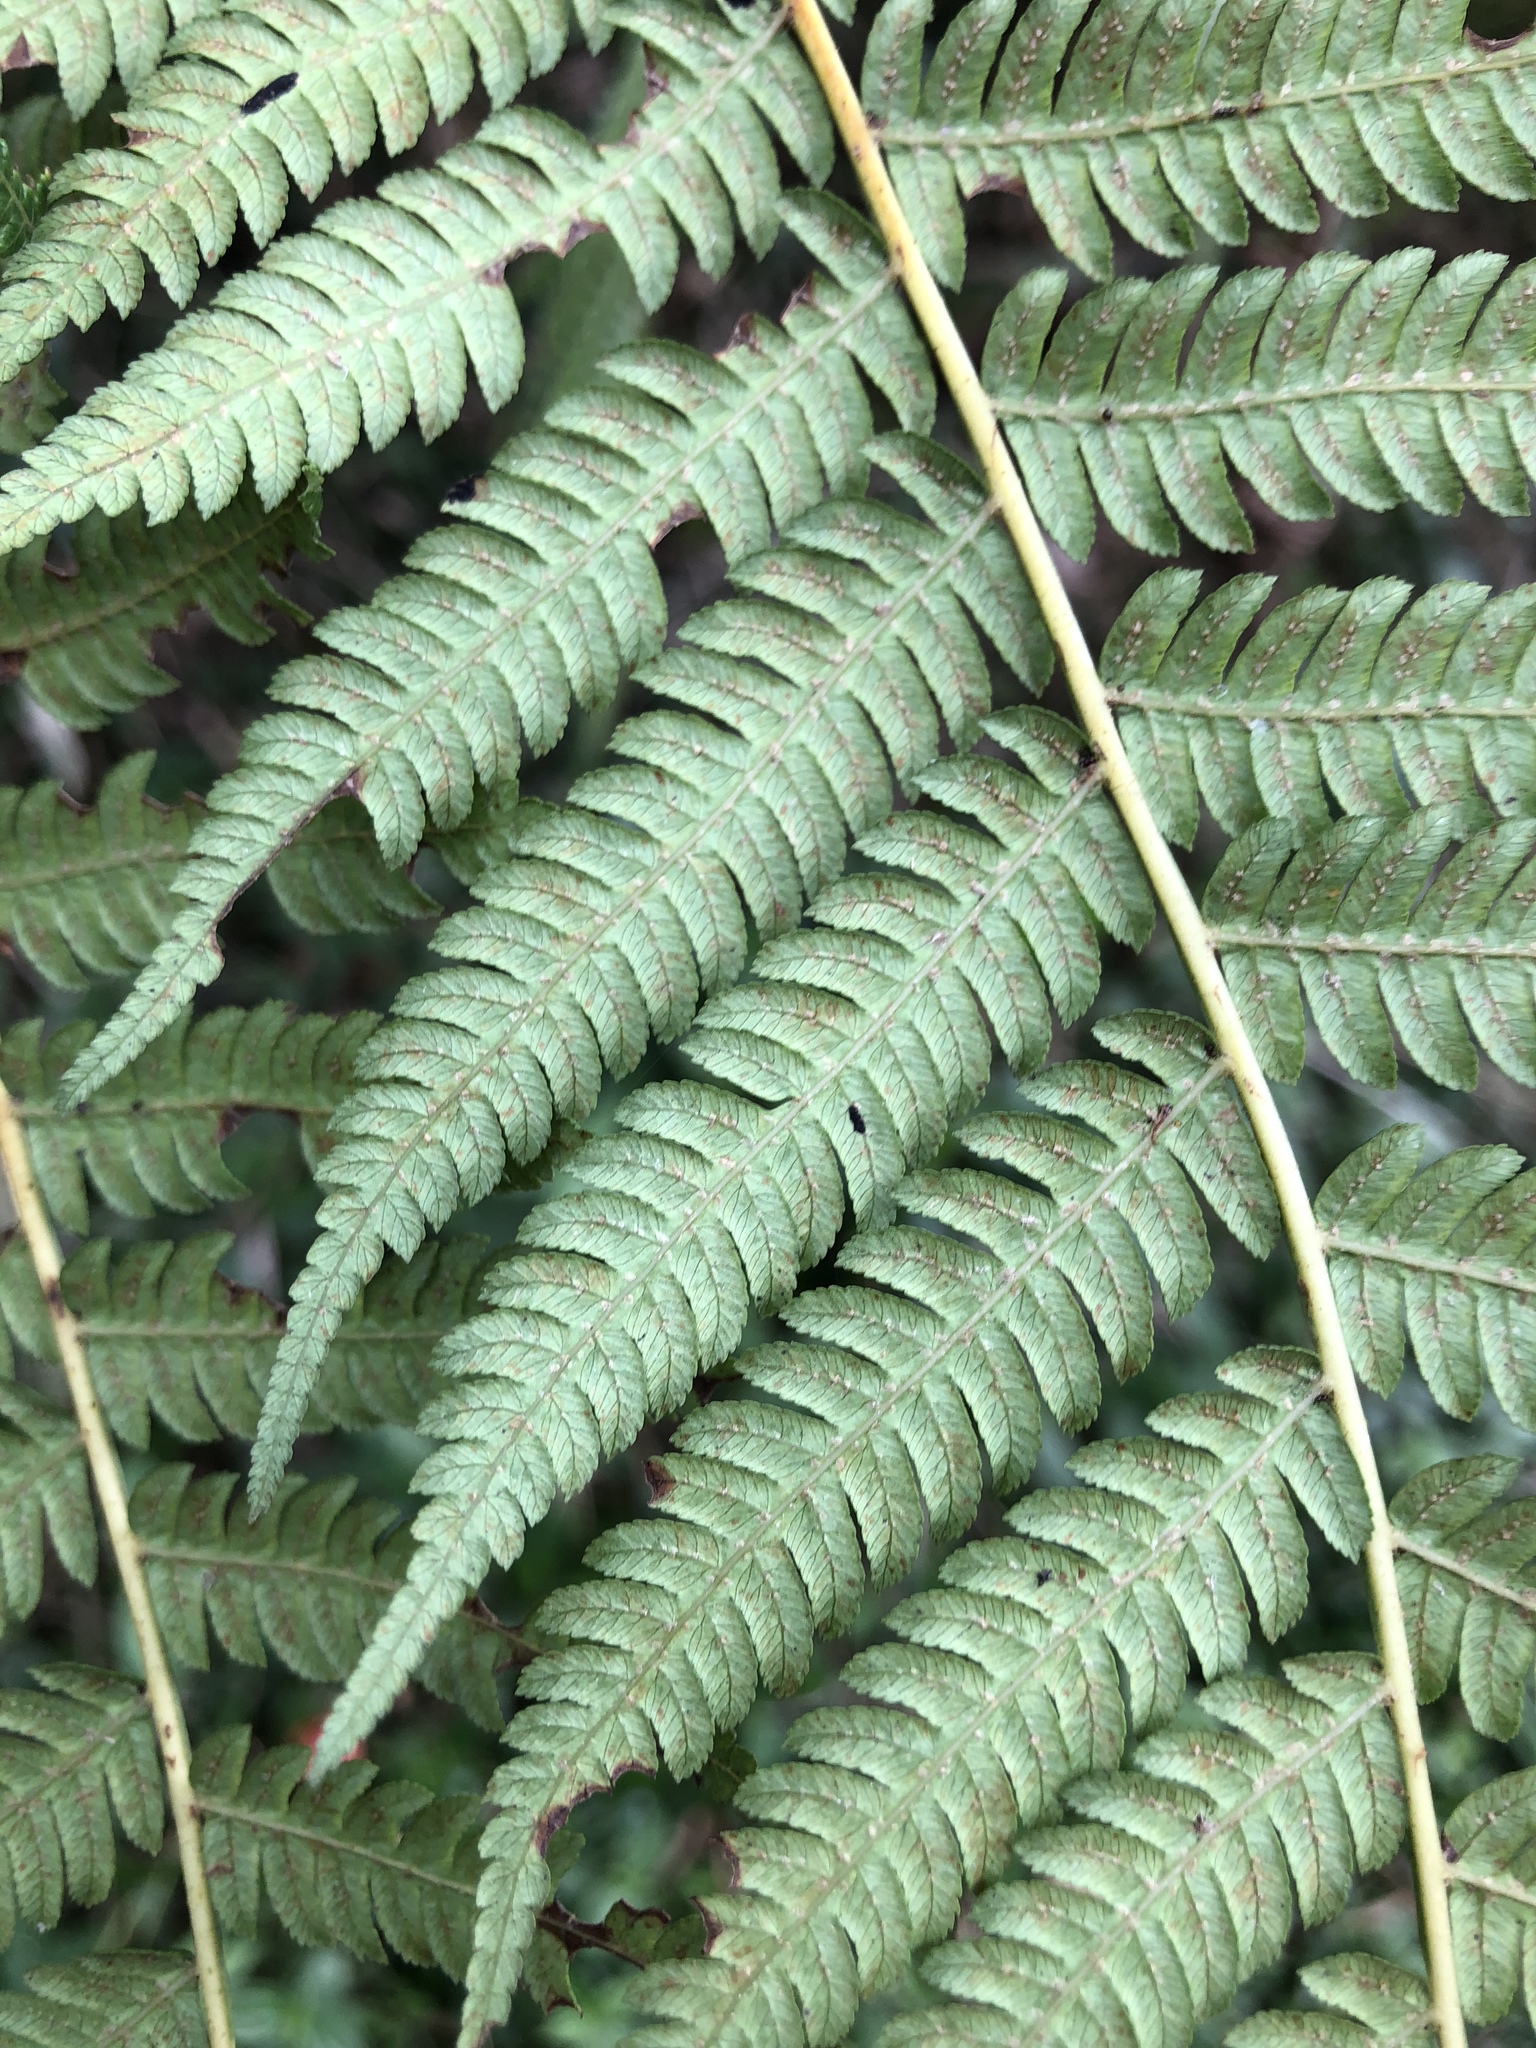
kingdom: Plantae
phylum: Tracheophyta
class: Polypodiopsida
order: Cyatheales
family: Cyatheaceae
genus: Alsophila
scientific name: Alsophila spinulosa
